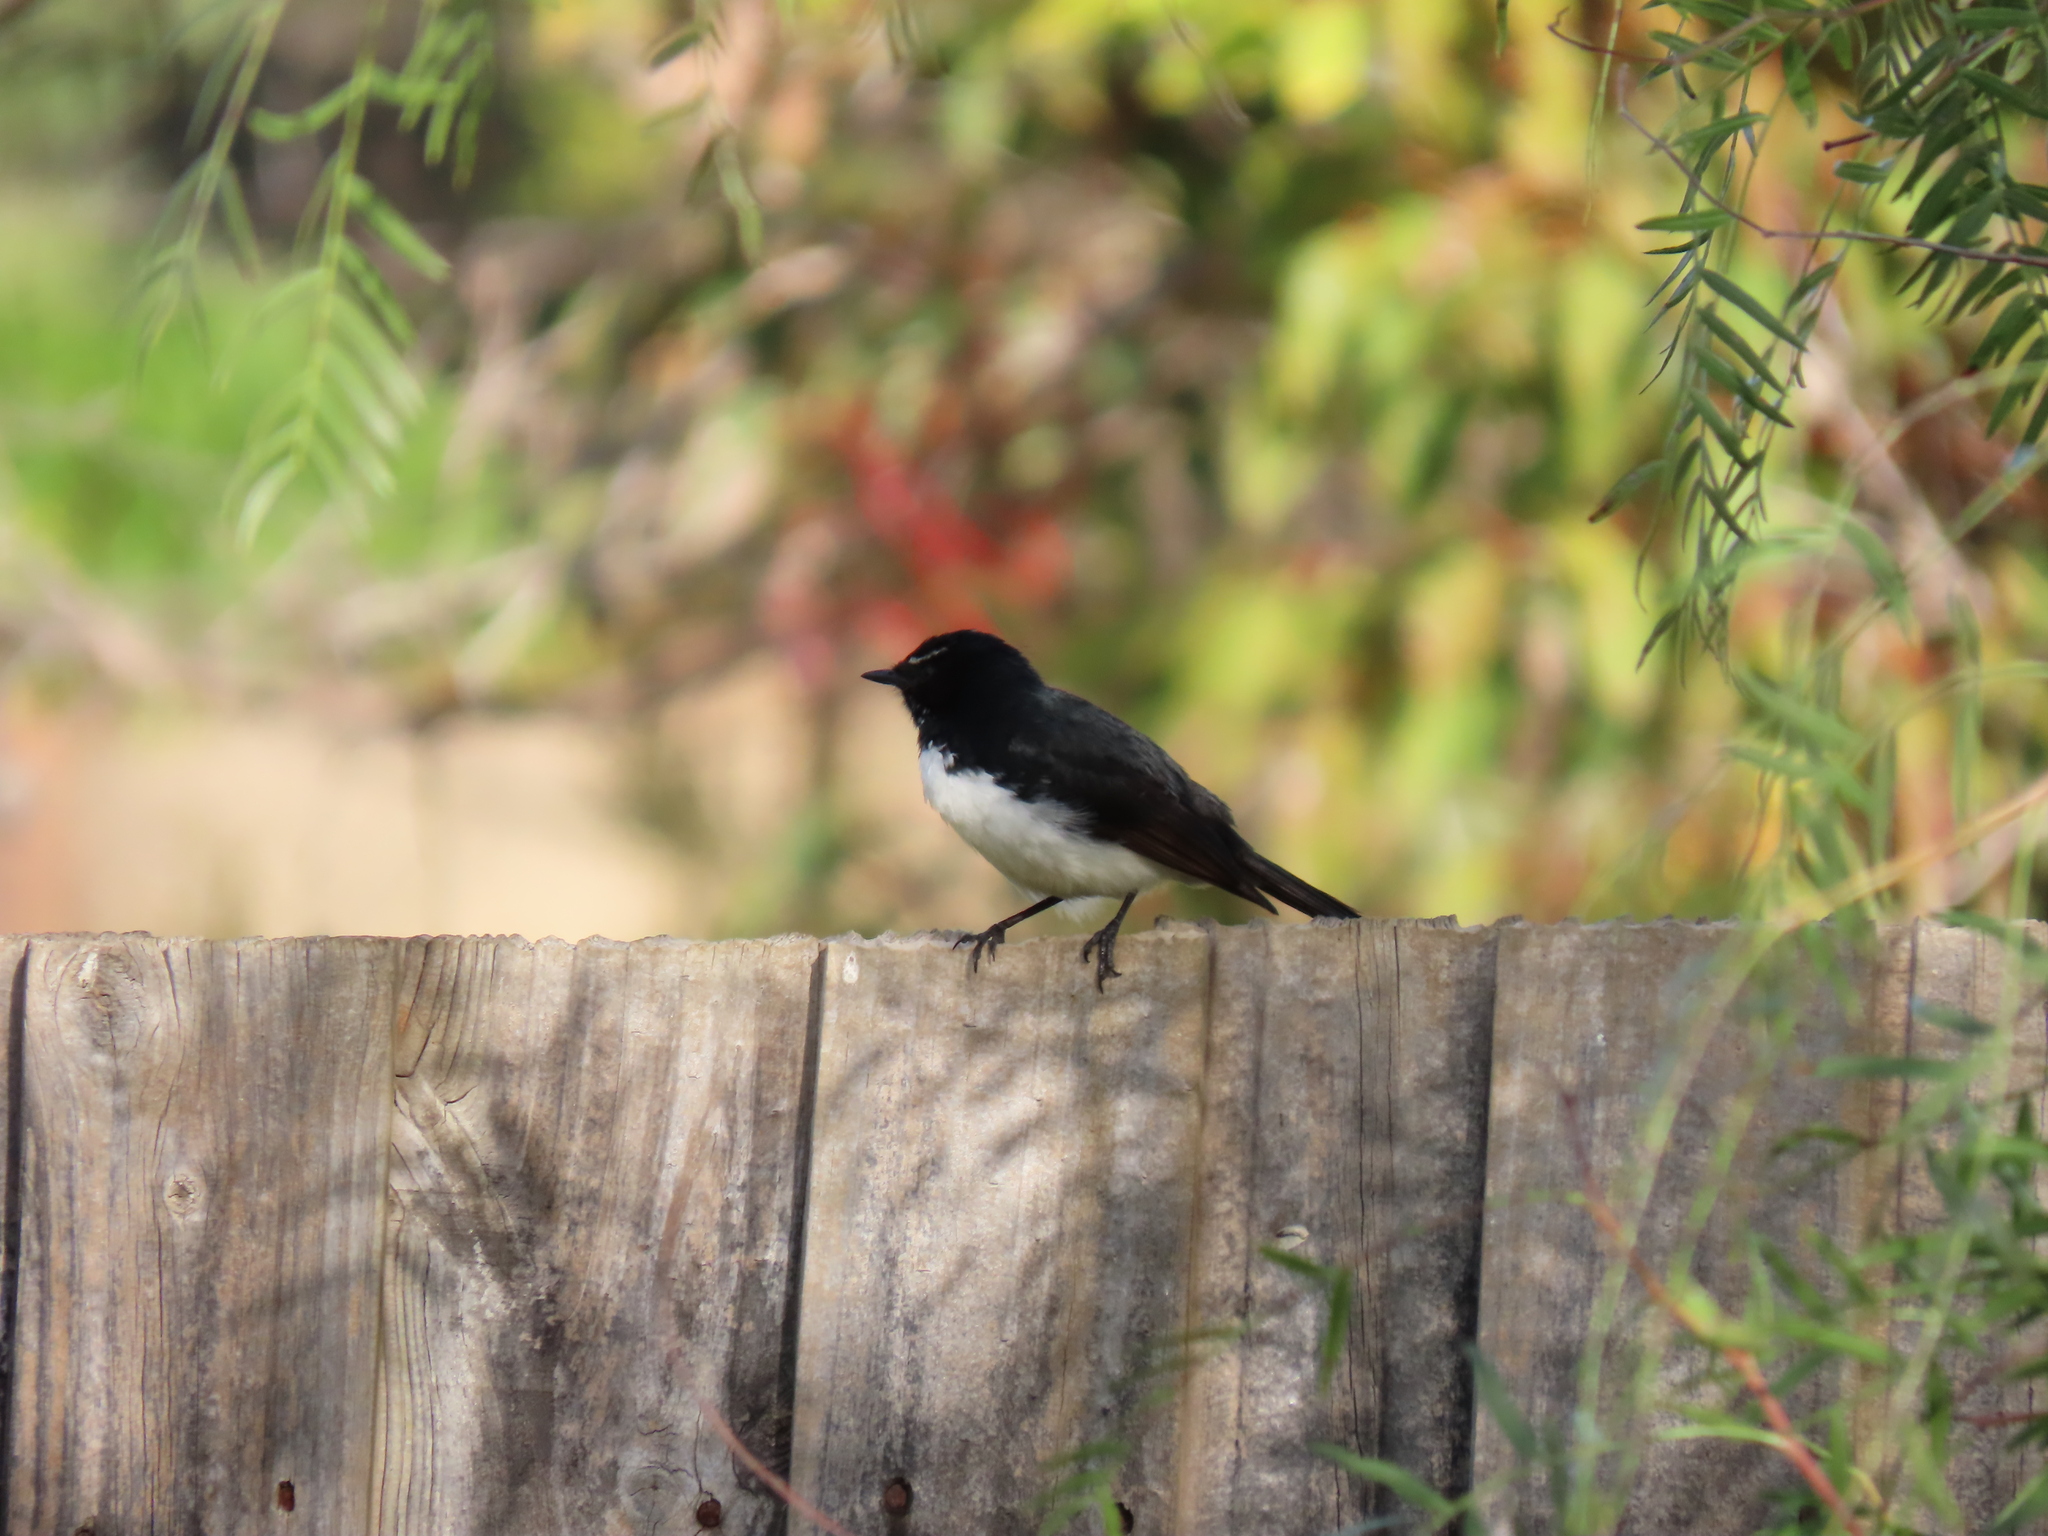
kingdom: Animalia
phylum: Chordata
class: Aves
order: Passeriformes
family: Rhipiduridae
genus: Rhipidura
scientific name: Rhipidura leucophrys
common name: Willie wagtail
